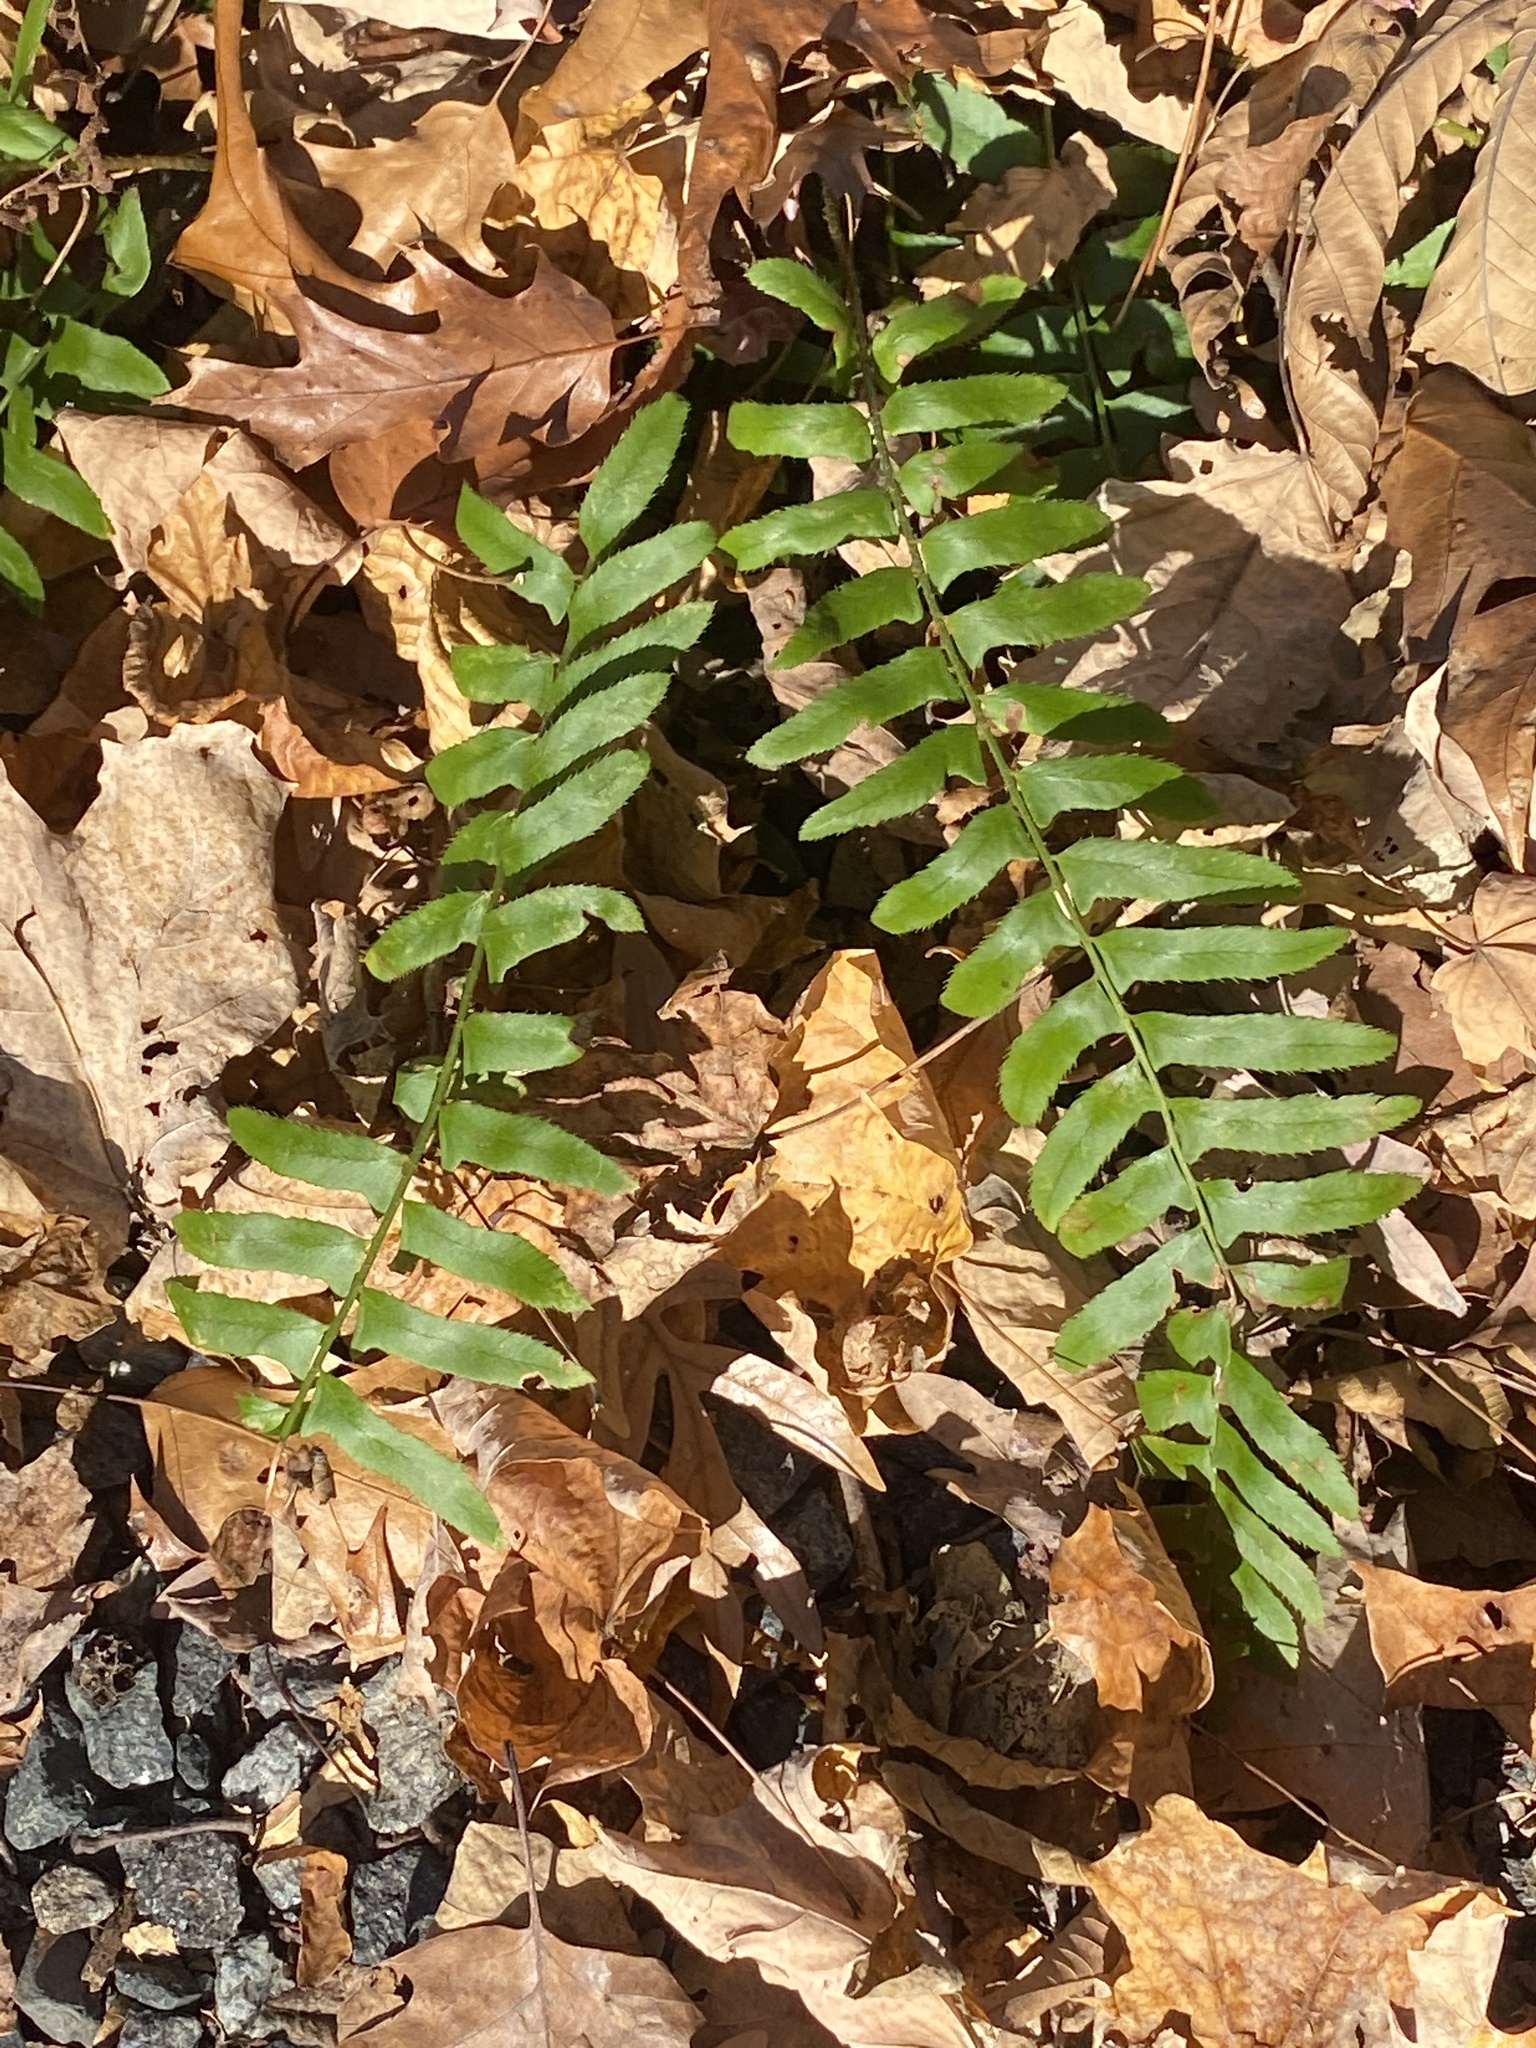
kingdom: Plantae
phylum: Tracheophyta
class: Polypodiopsida
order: Polypodiales
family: Dryopteridaceae
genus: Polystichum
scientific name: Polystichum acrostichoides
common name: Christmas fern
